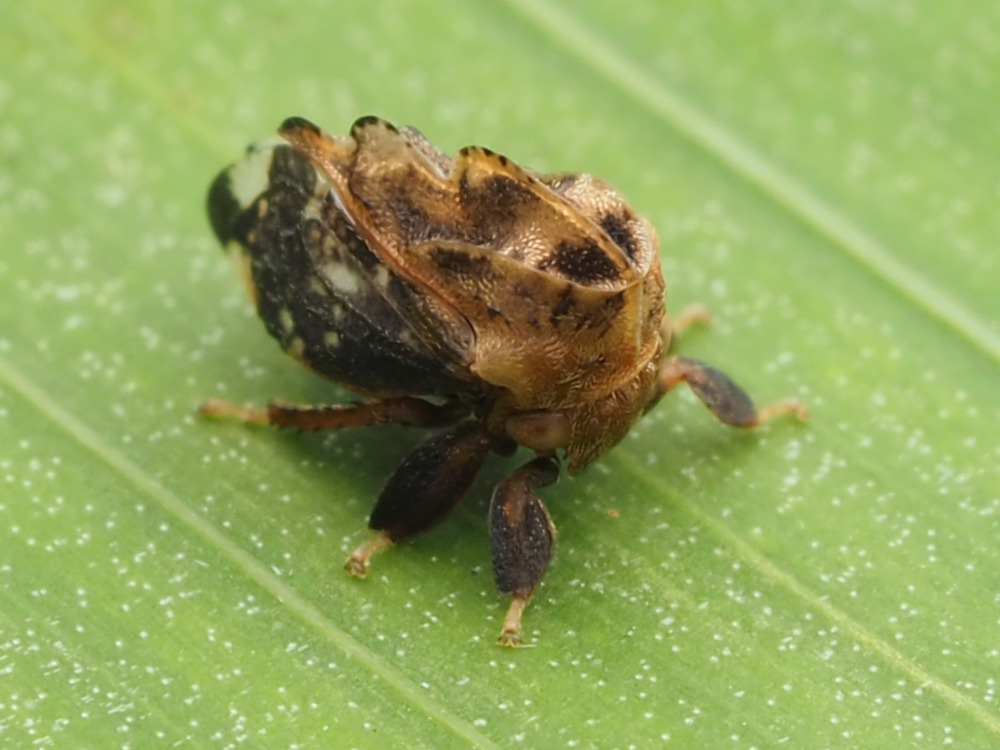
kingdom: Animalia
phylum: Arthropoda
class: Insecta
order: Hemiptera
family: Membracidae
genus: Tylopelta
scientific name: Tylopelta gibbera
